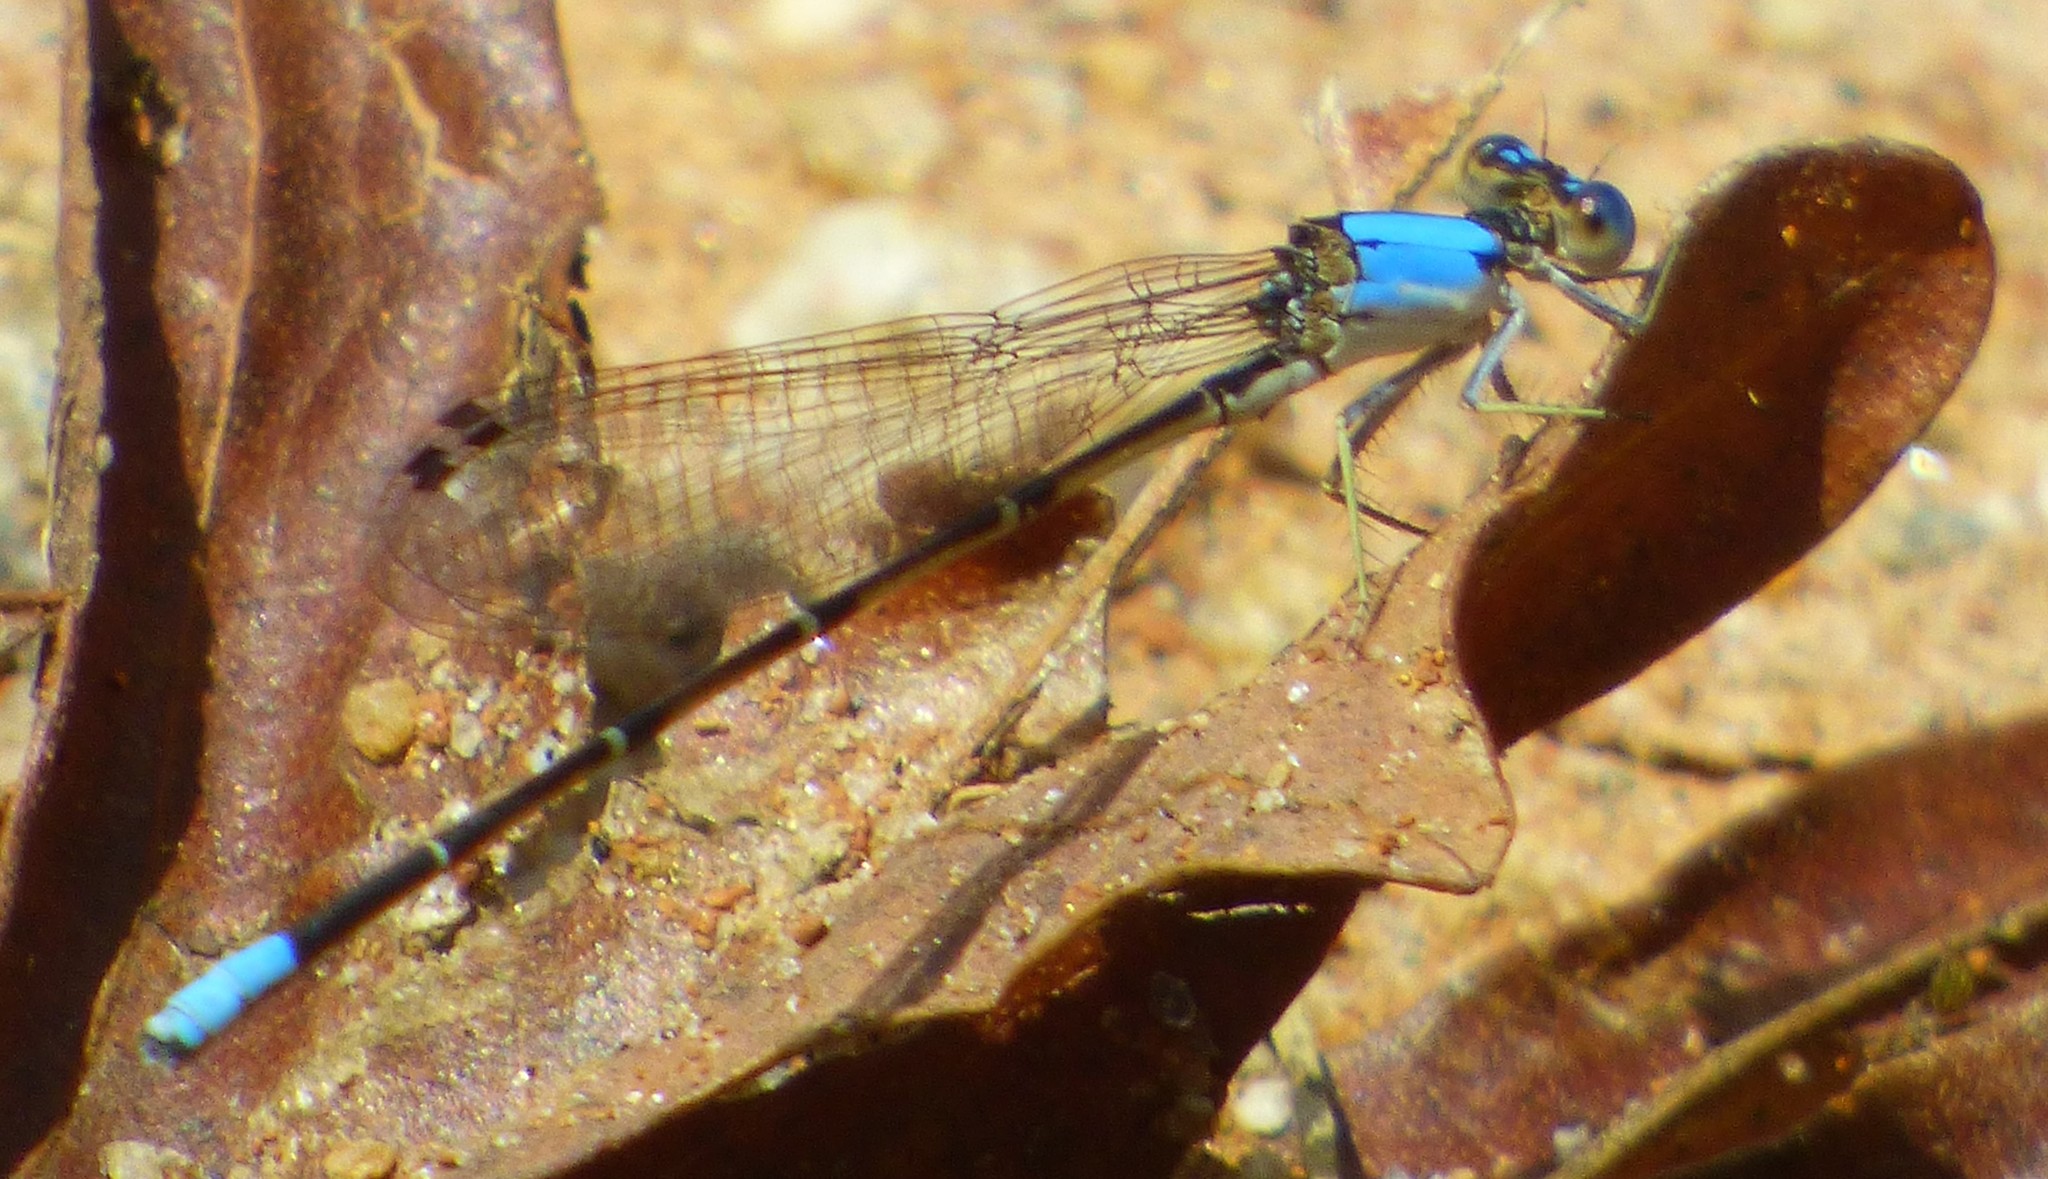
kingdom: Animalia
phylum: Arthropoda
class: Insecta
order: Odonata
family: Coenagrionidae
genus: Argia
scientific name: Argia apicalis
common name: Blue-fronted dancer
